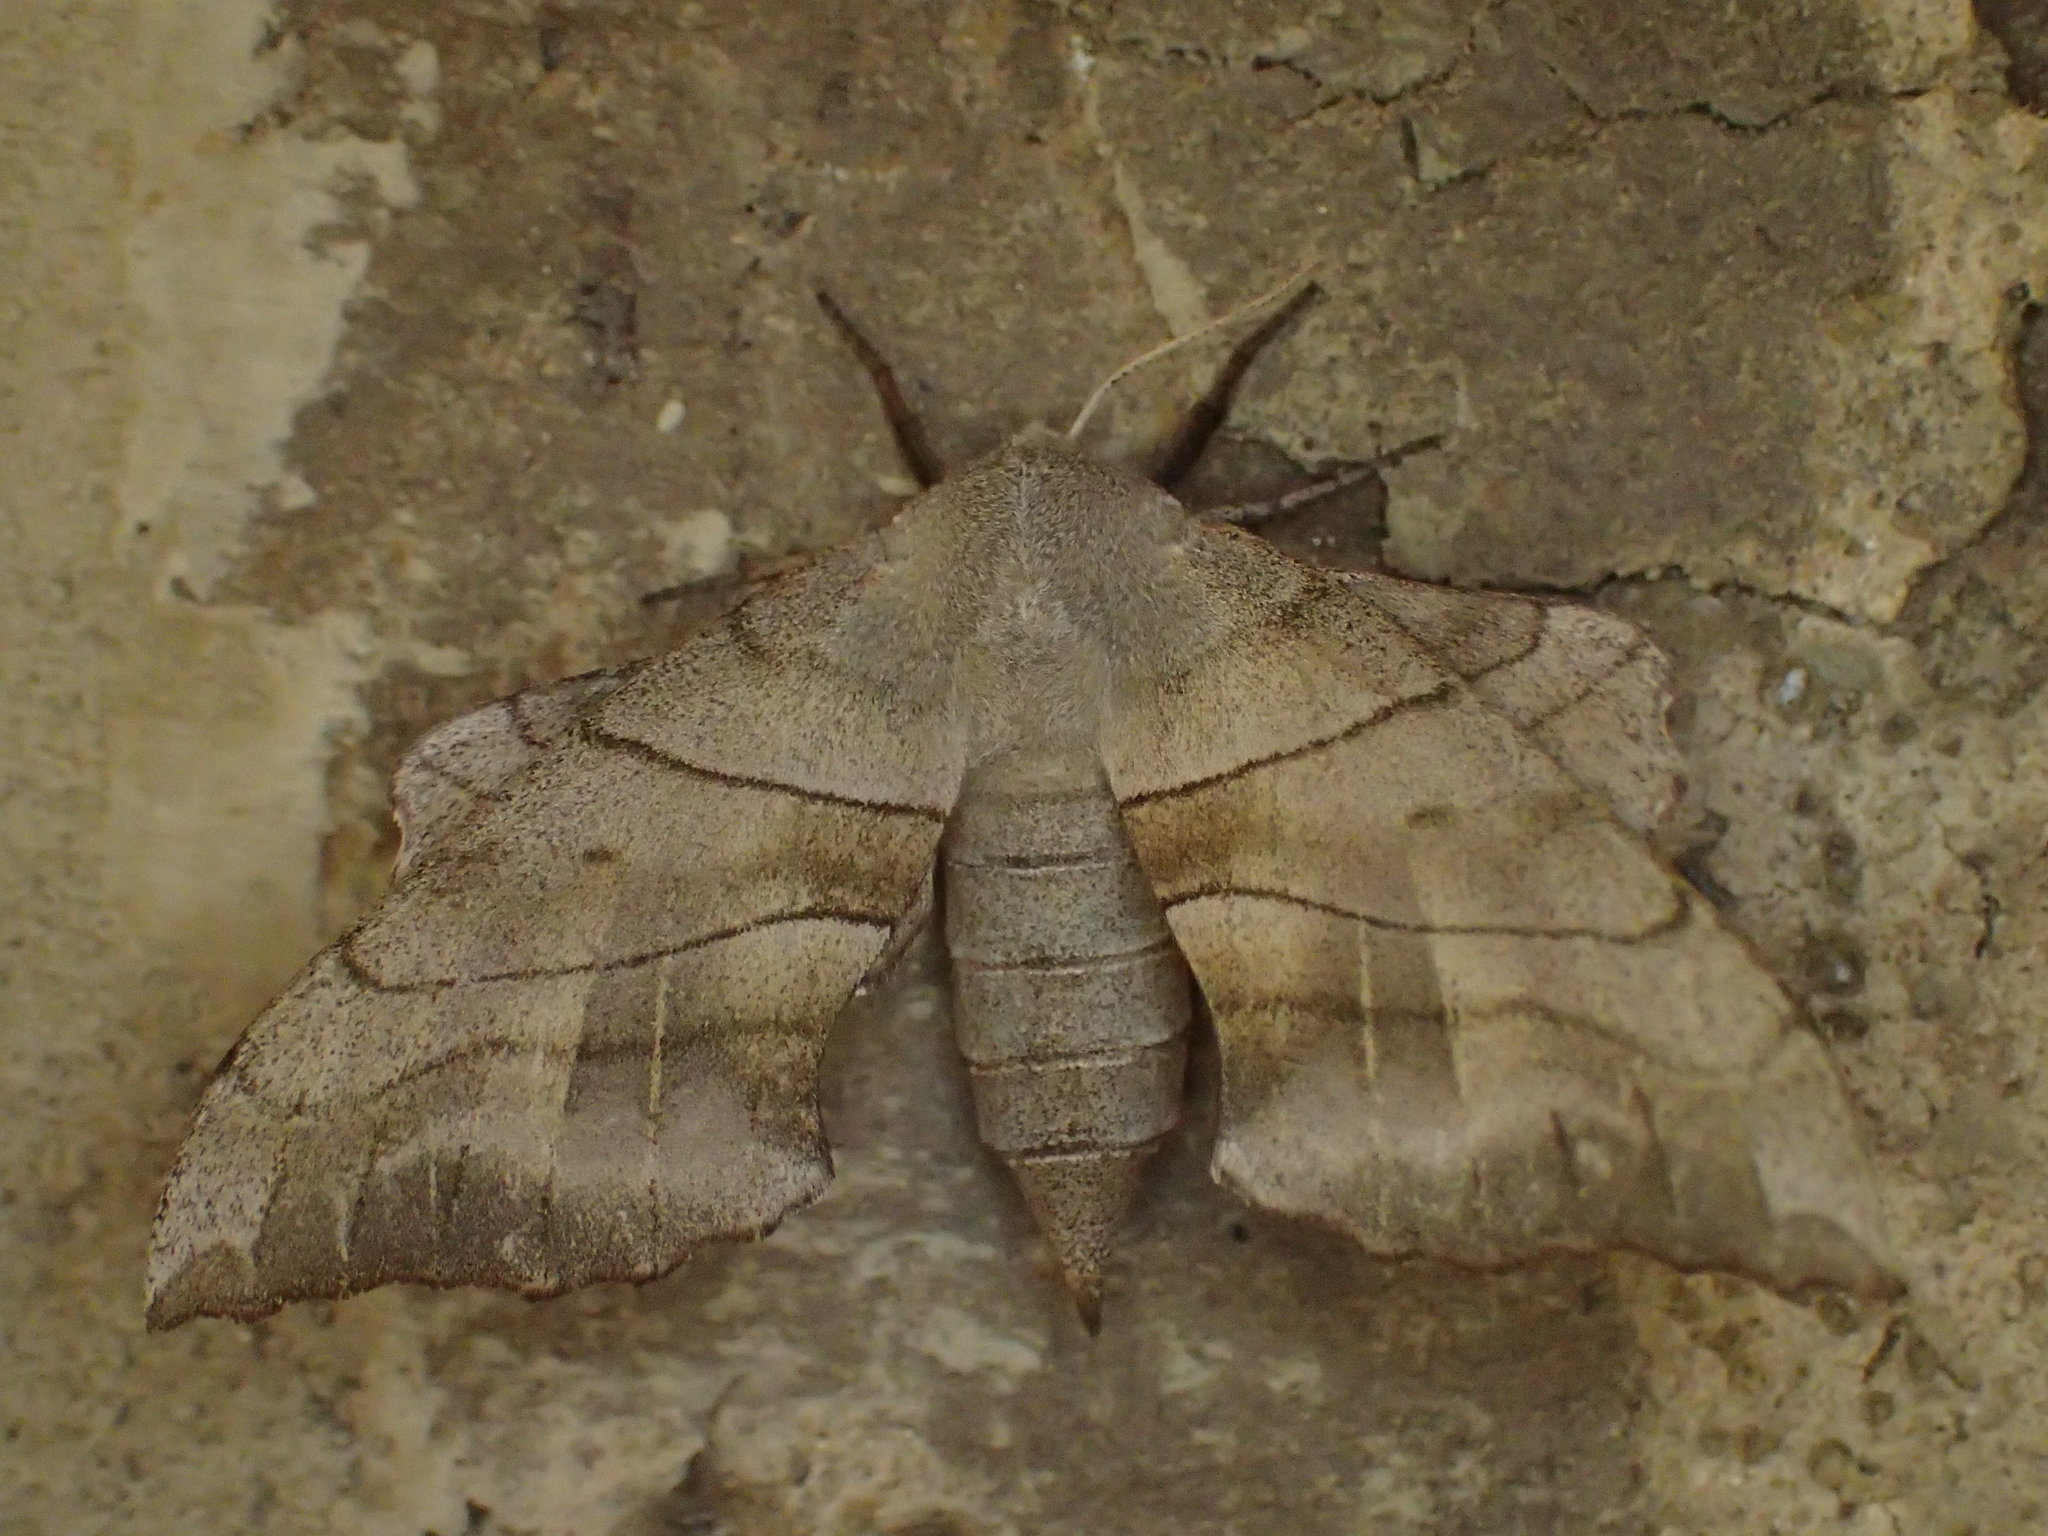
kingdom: Animalia
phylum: Arthropoda
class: Insecta
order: Lepidoptera
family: Sphingidae
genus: Amorpha
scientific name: Amorpha juglandis
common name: Walnut sphinx
